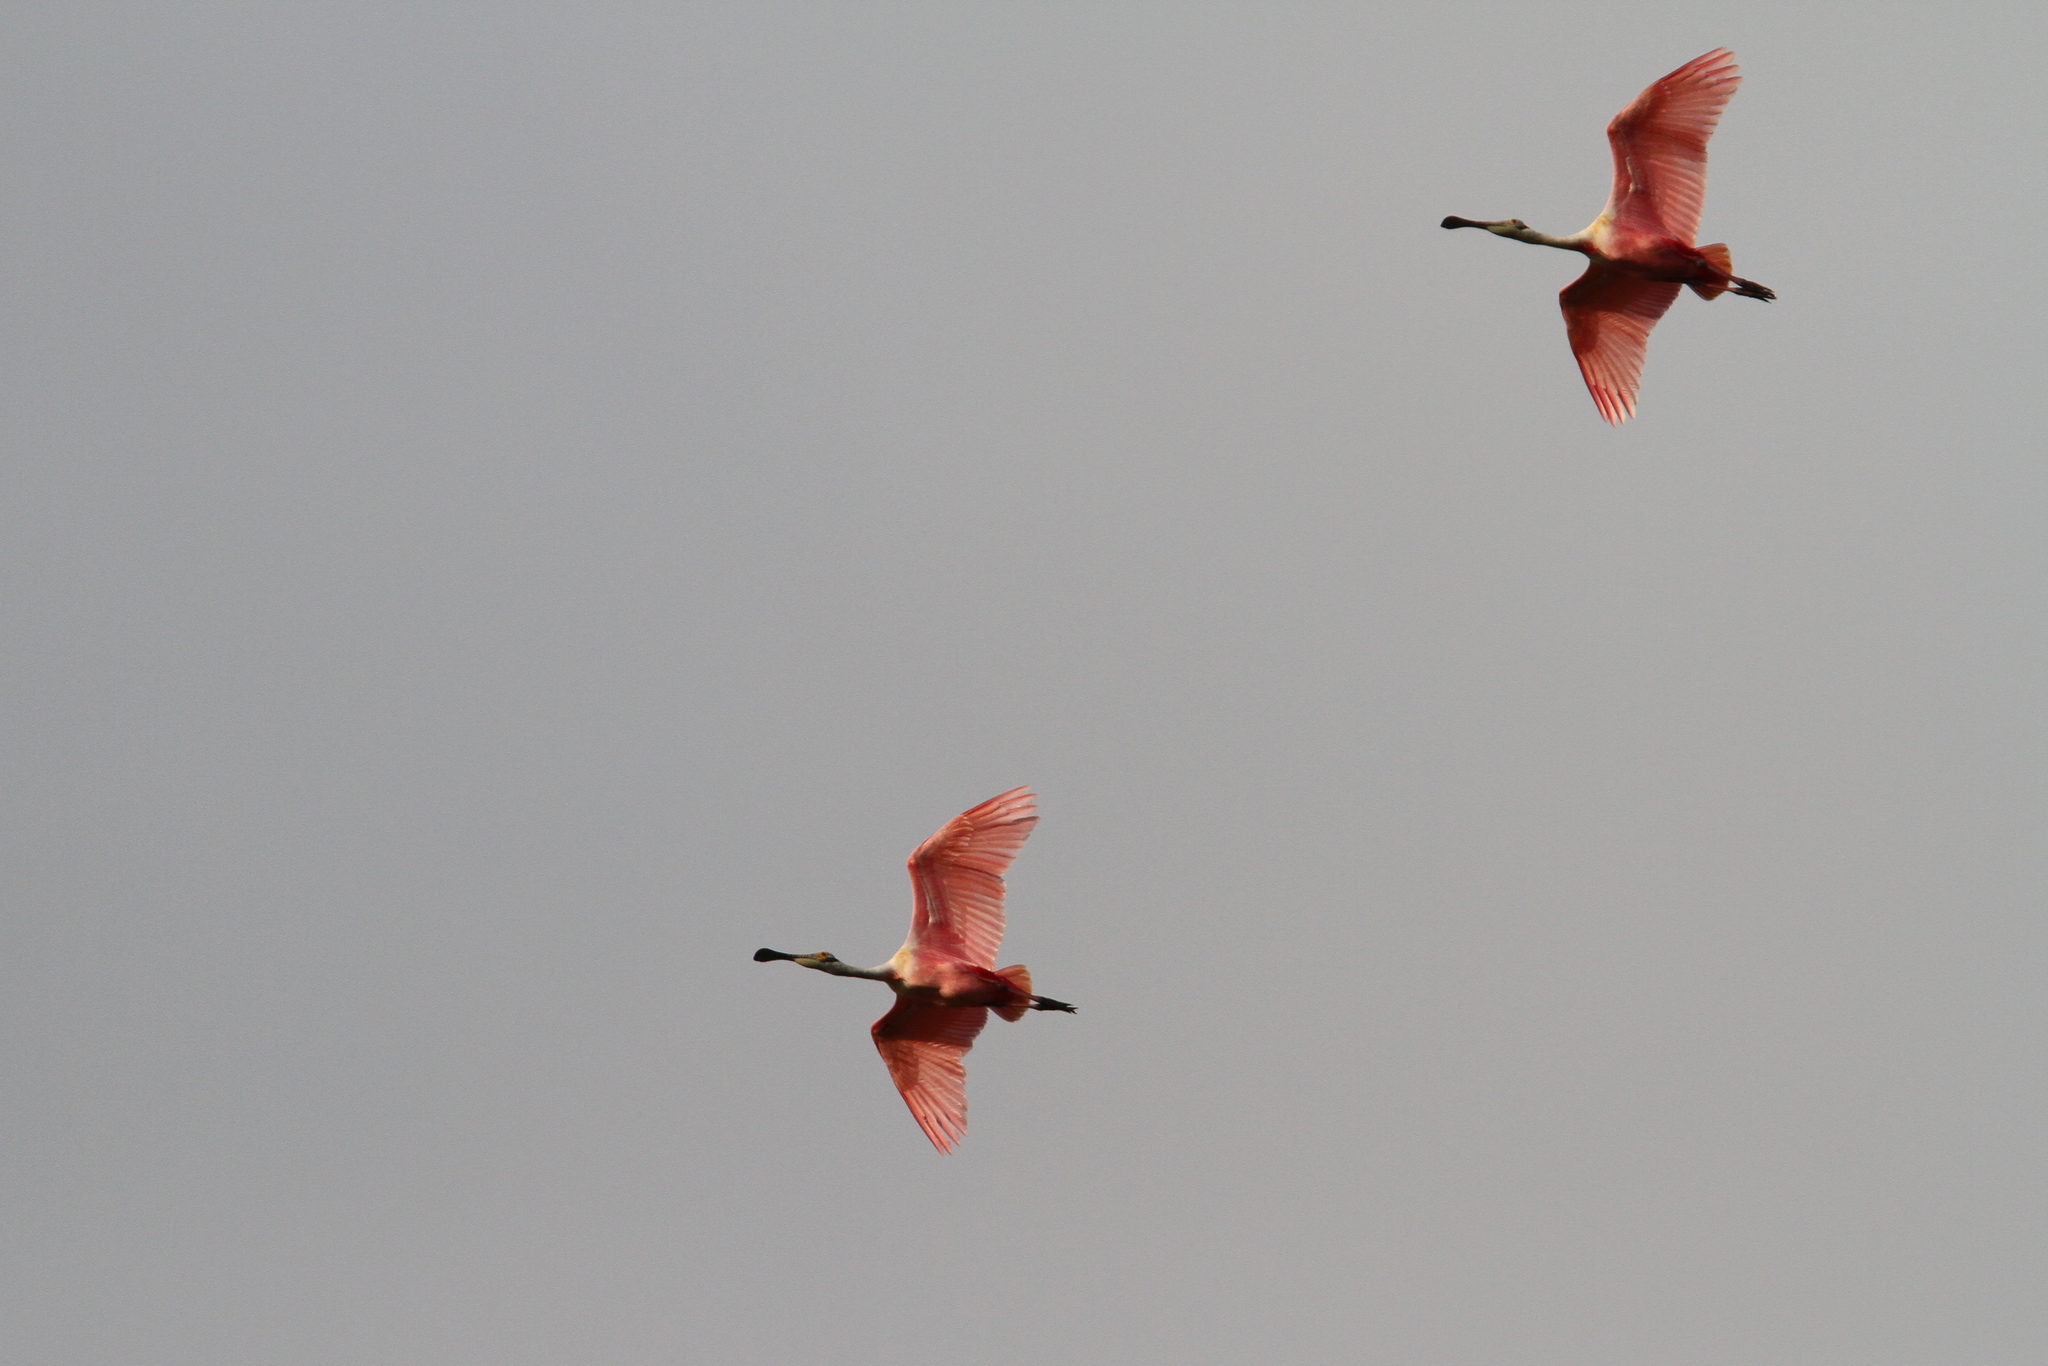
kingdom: Animalia
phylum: Chordata
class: Aves
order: Pelecaniformes
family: Threskiornithidae
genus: Platalea
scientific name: Platalea ajaja
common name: Roseate spoonbill
